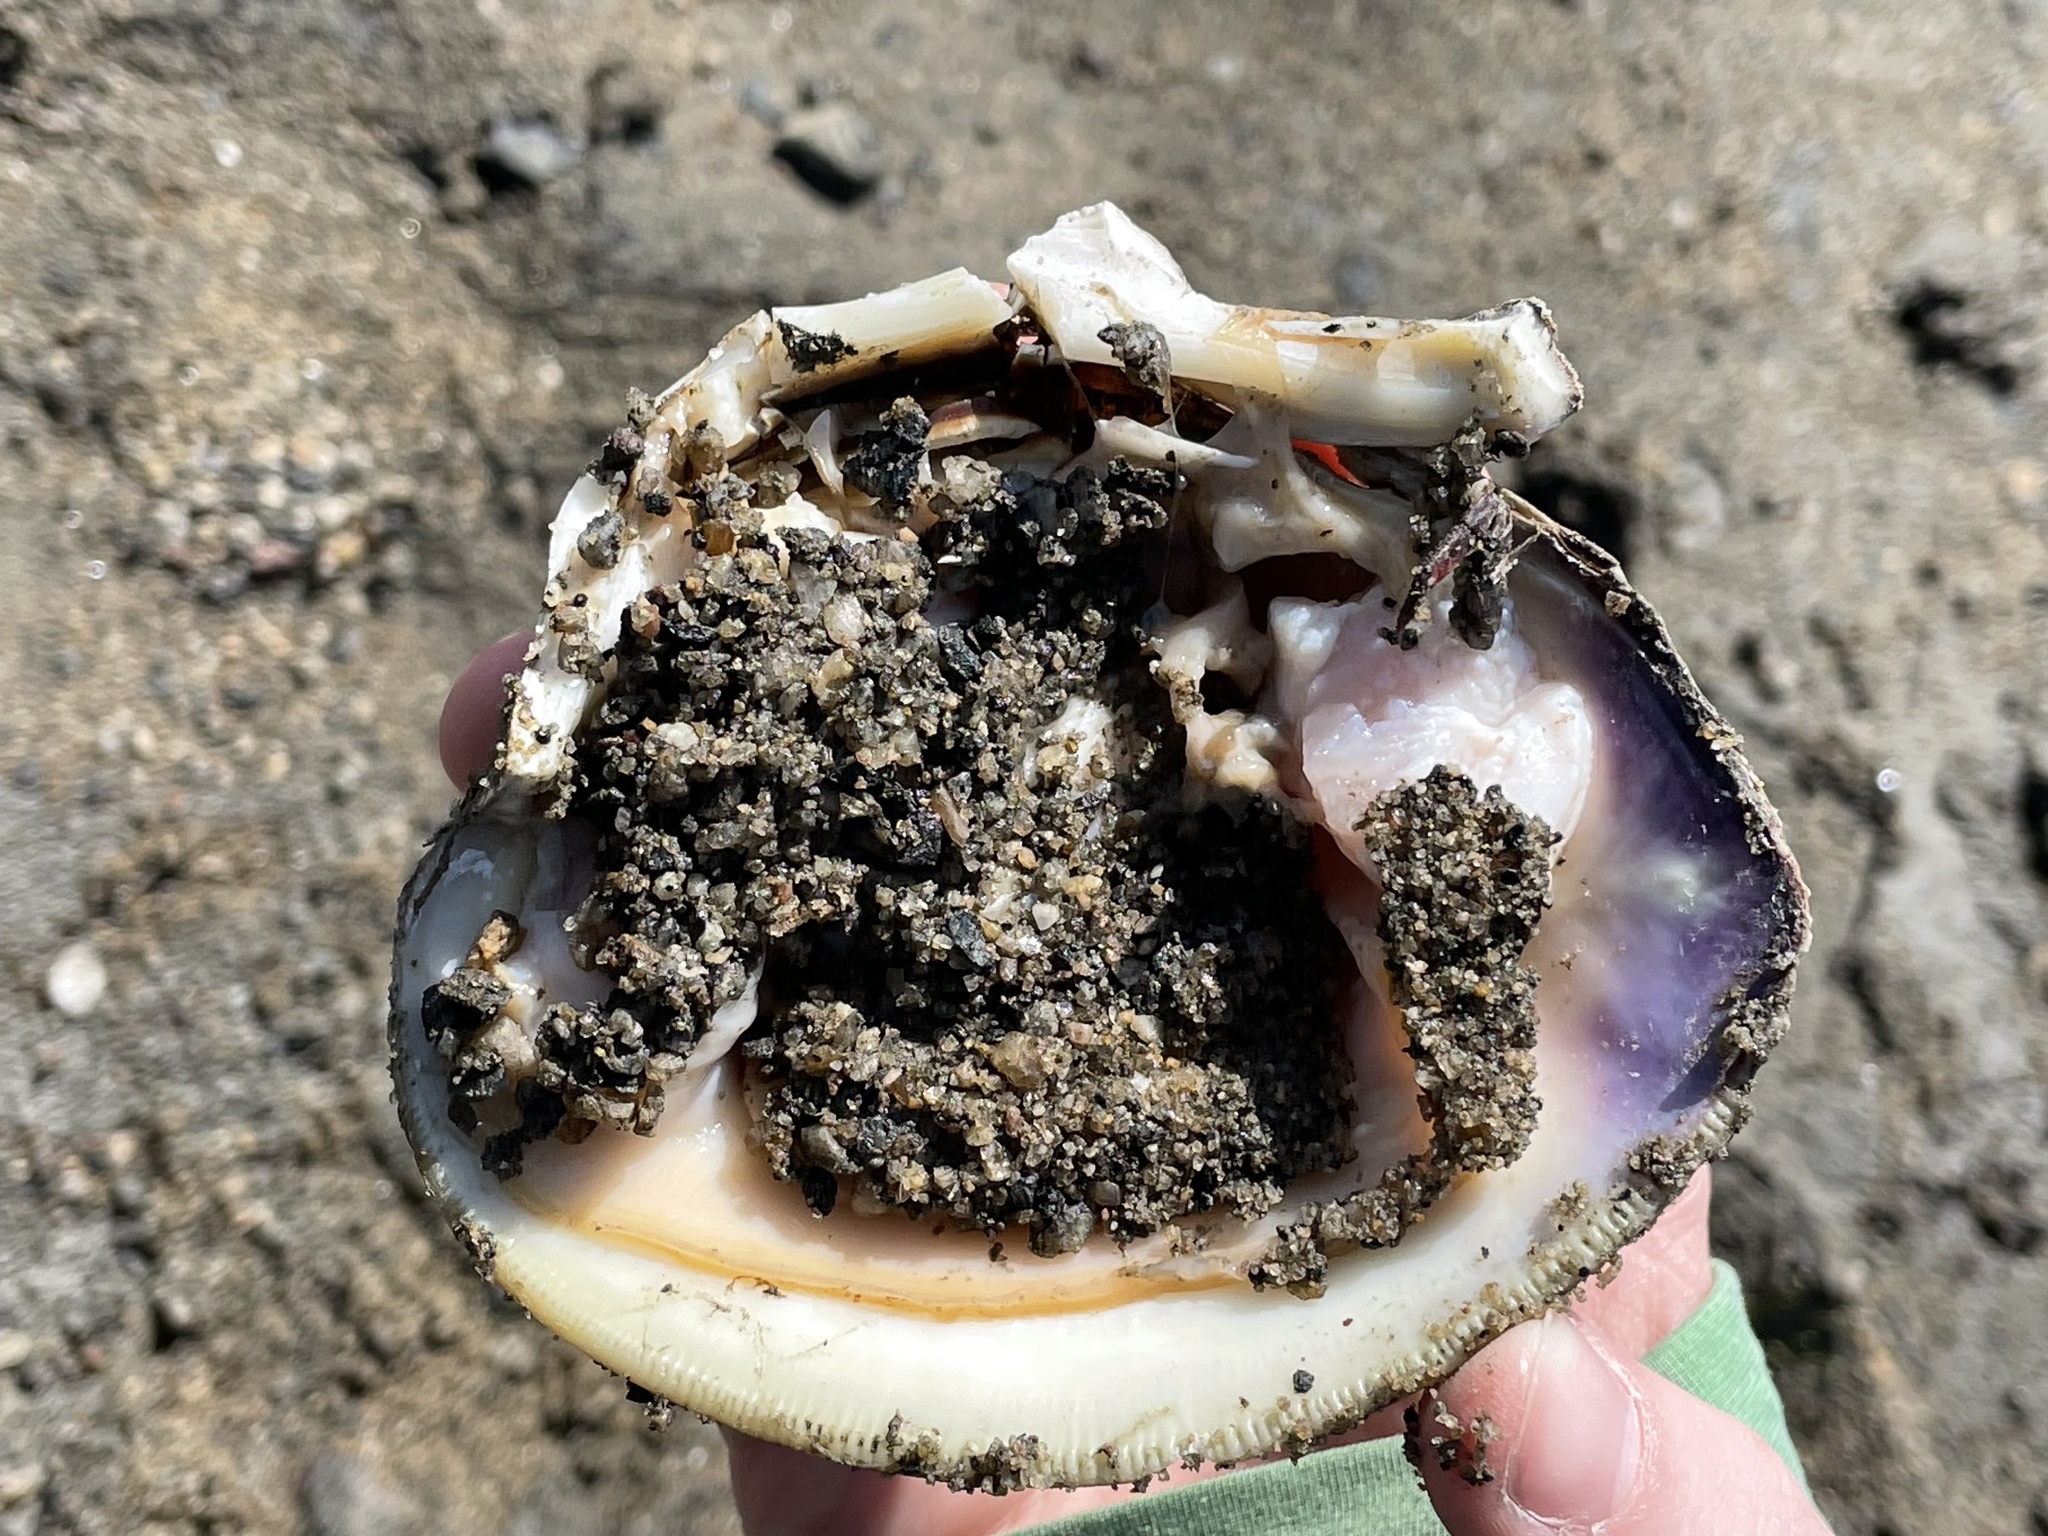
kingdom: Animalia
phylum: Mollusca
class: Bivalvia
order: Venerida
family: Veneridae
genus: Mercenaria
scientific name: Mercenaria mercenaria
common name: American hard-shelled clam
